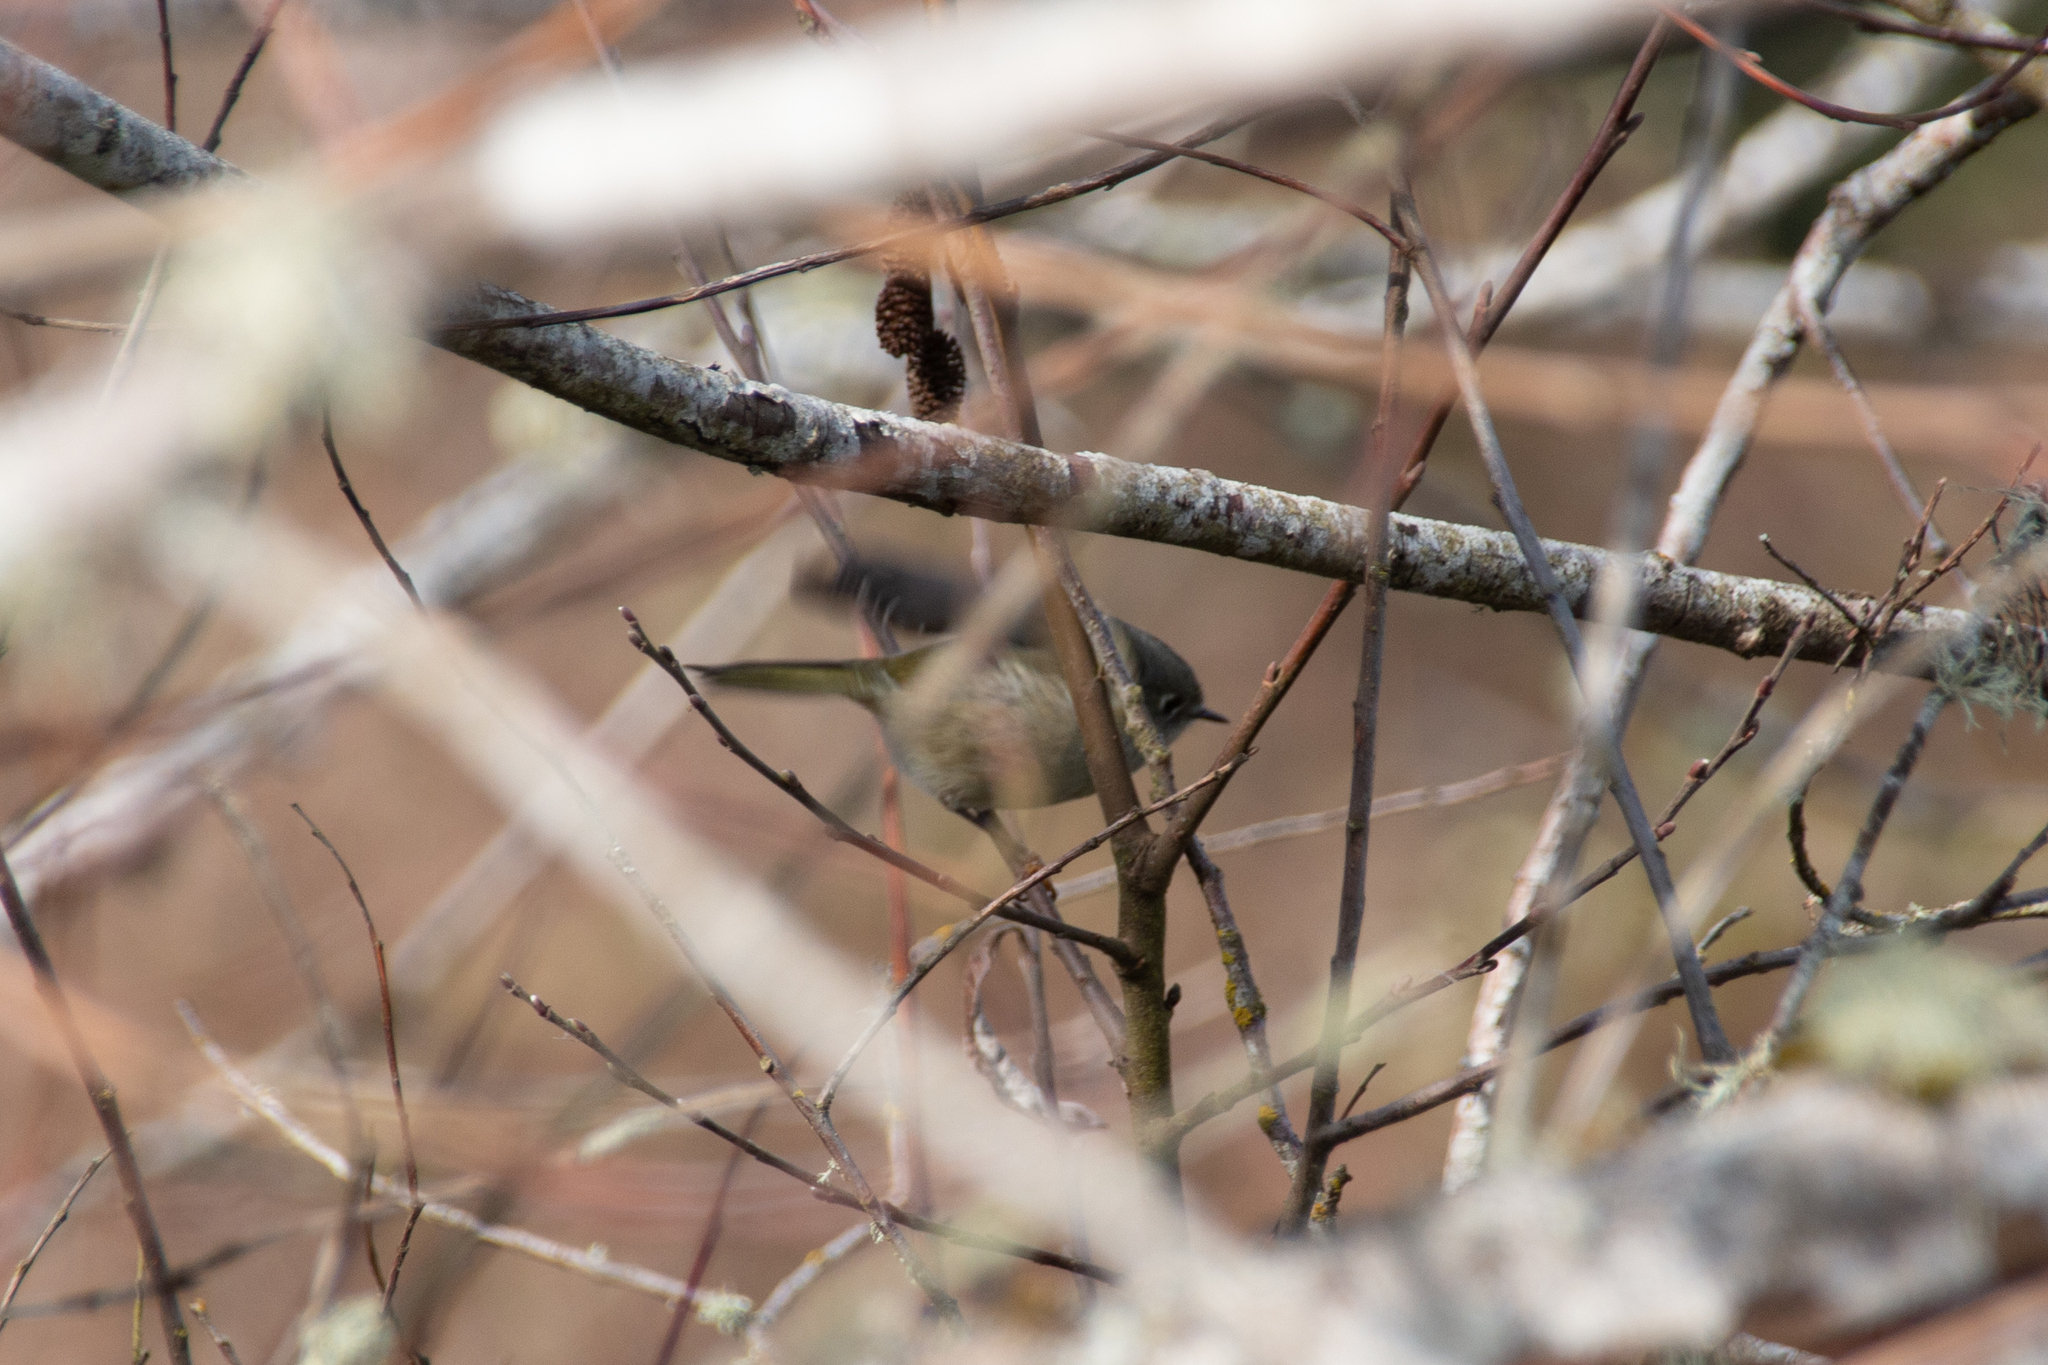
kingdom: Animalia
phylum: Chordata
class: Aves
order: Passeriformes
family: Regulidae
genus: Regulus
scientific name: Regulus calendula
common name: Ruby-crowned kinglet
